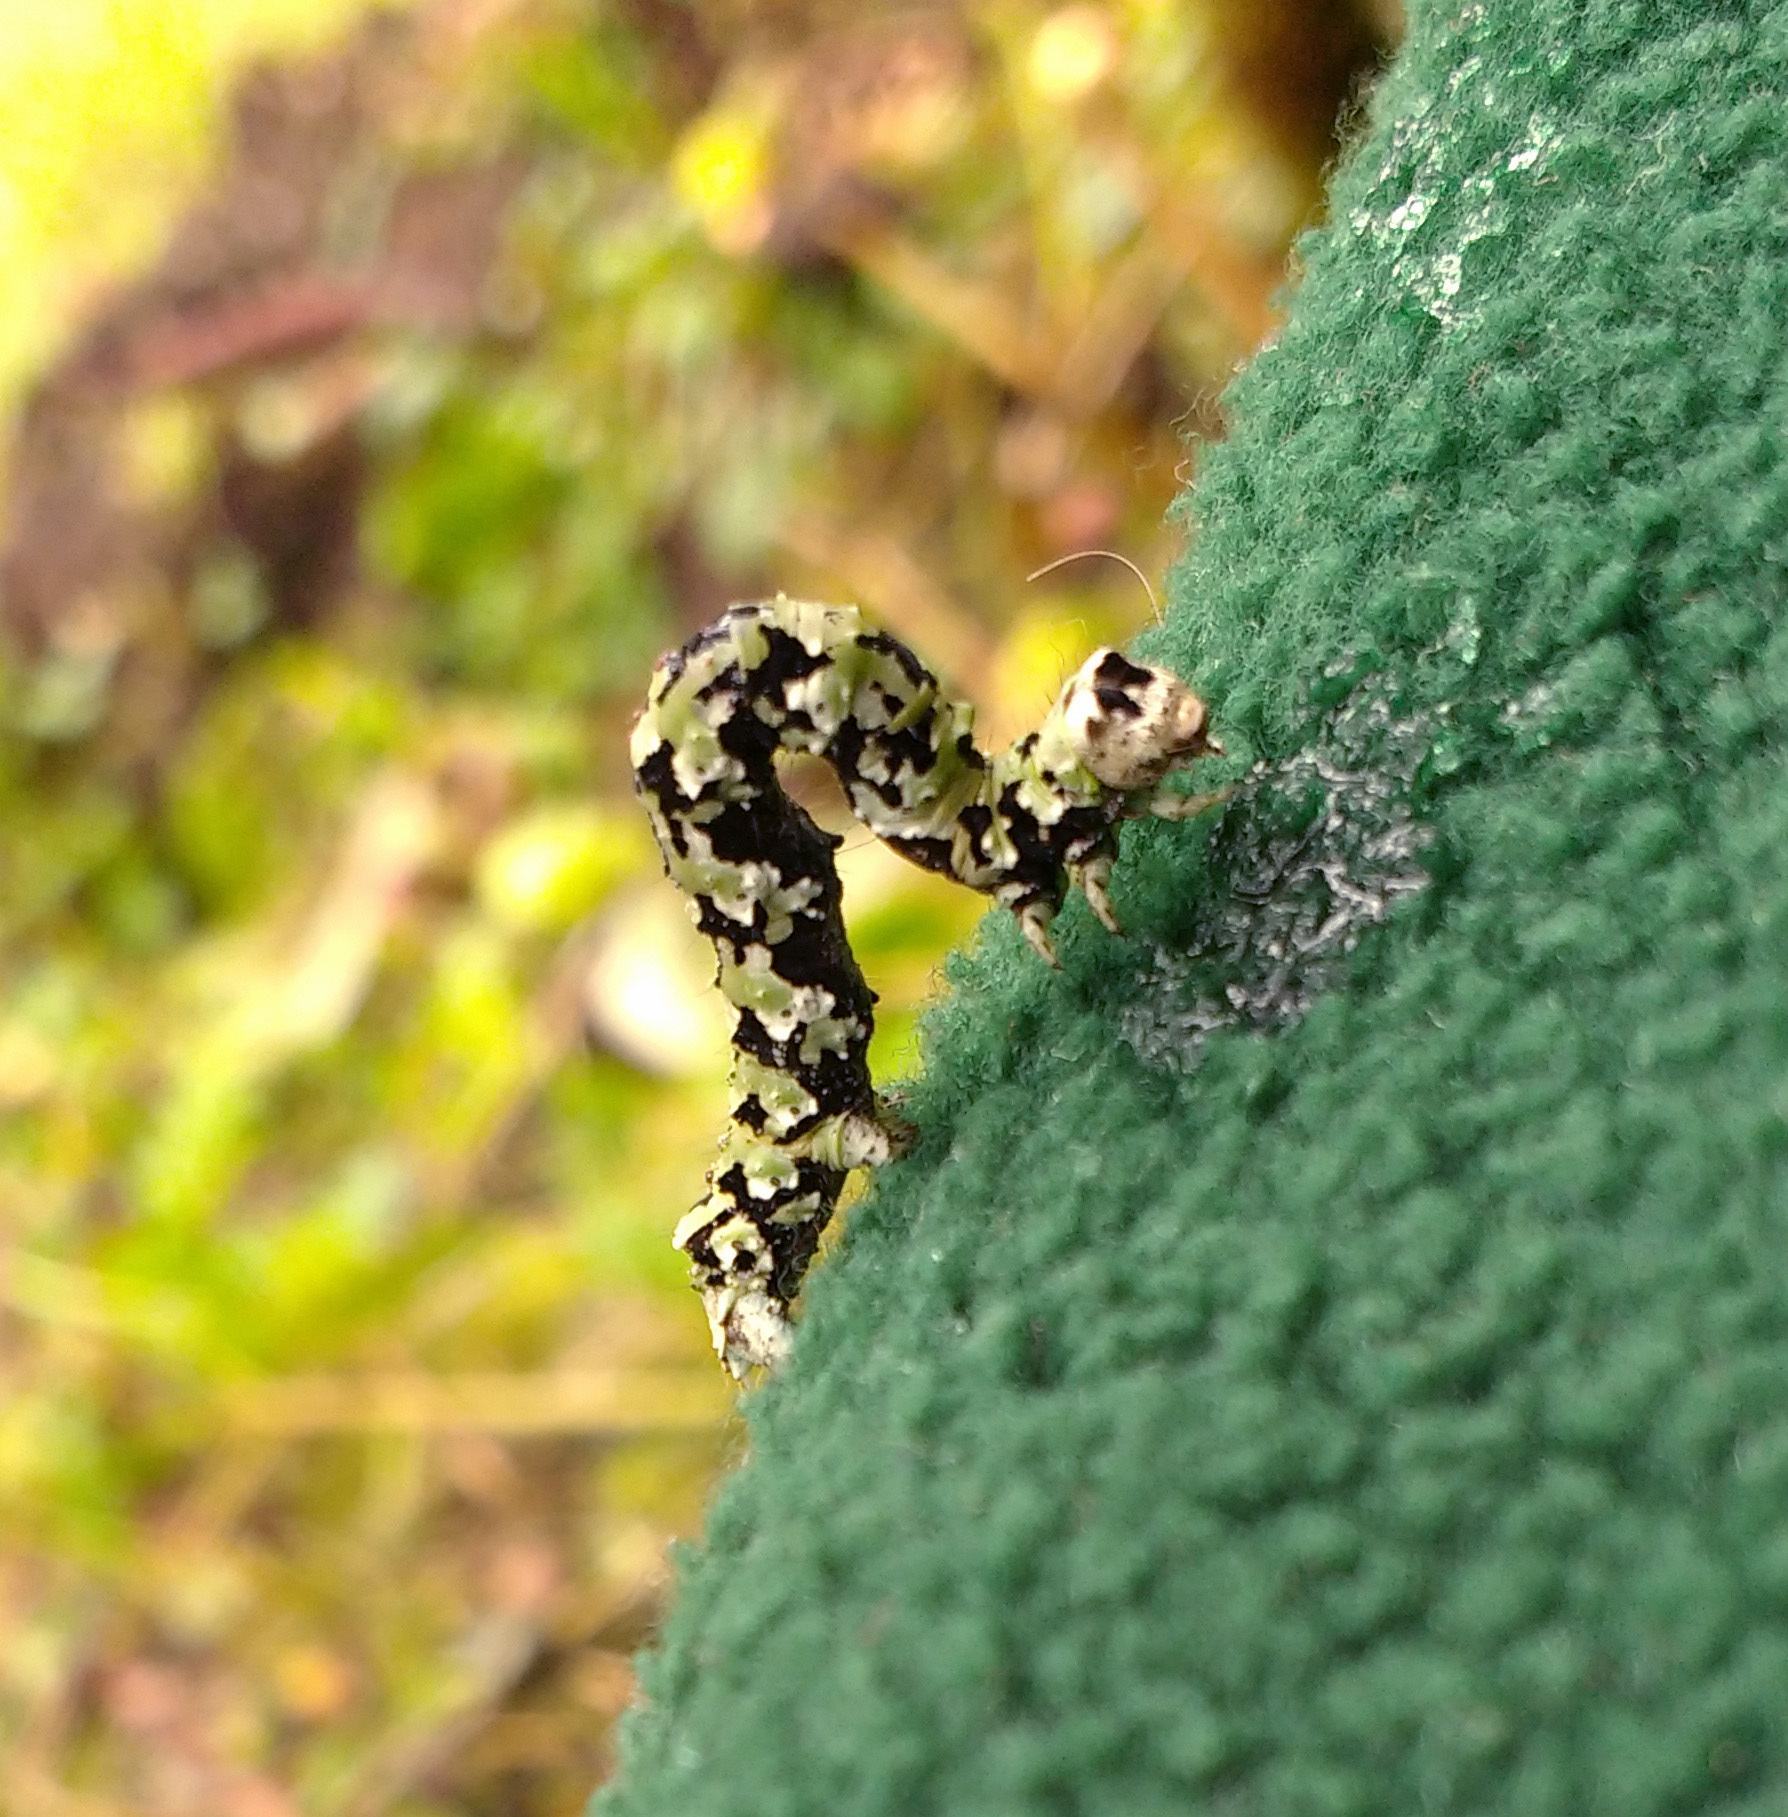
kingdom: Animalia
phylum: Arthropoda
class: Insecta
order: Lepidoptera
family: Geometridae
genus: Odontopera
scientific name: Odontopera bidentata
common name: Scalloped hazel
